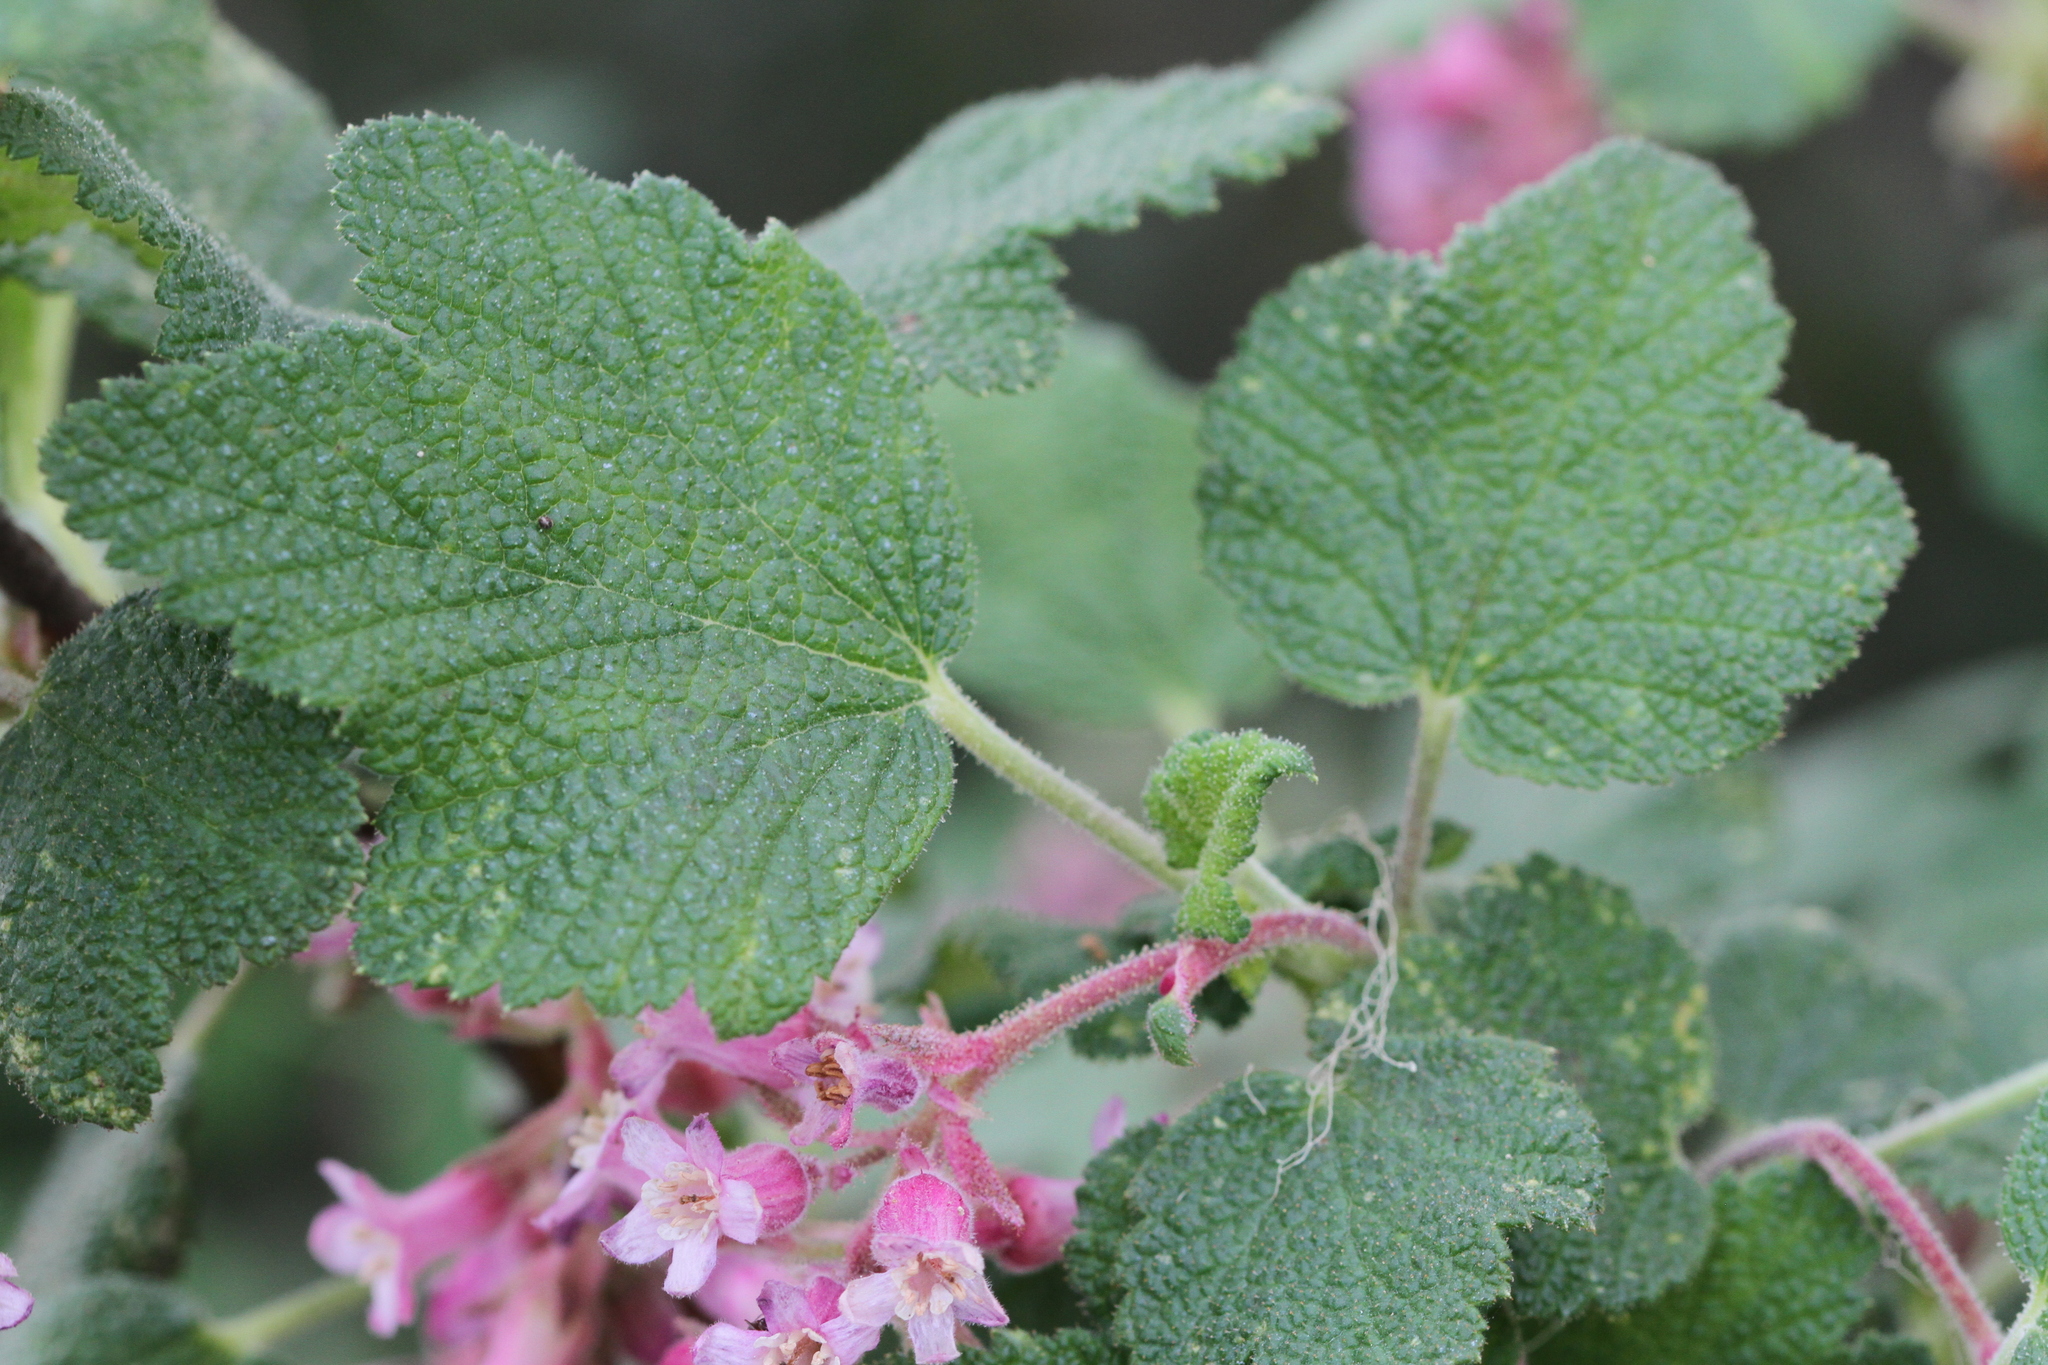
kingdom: Plantae
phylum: Tracheophyta
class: Magnoliopsida
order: Saxifragales
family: Grossulariaceae
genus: Ribes
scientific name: Ribes malvaceum
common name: Chaparral currant
